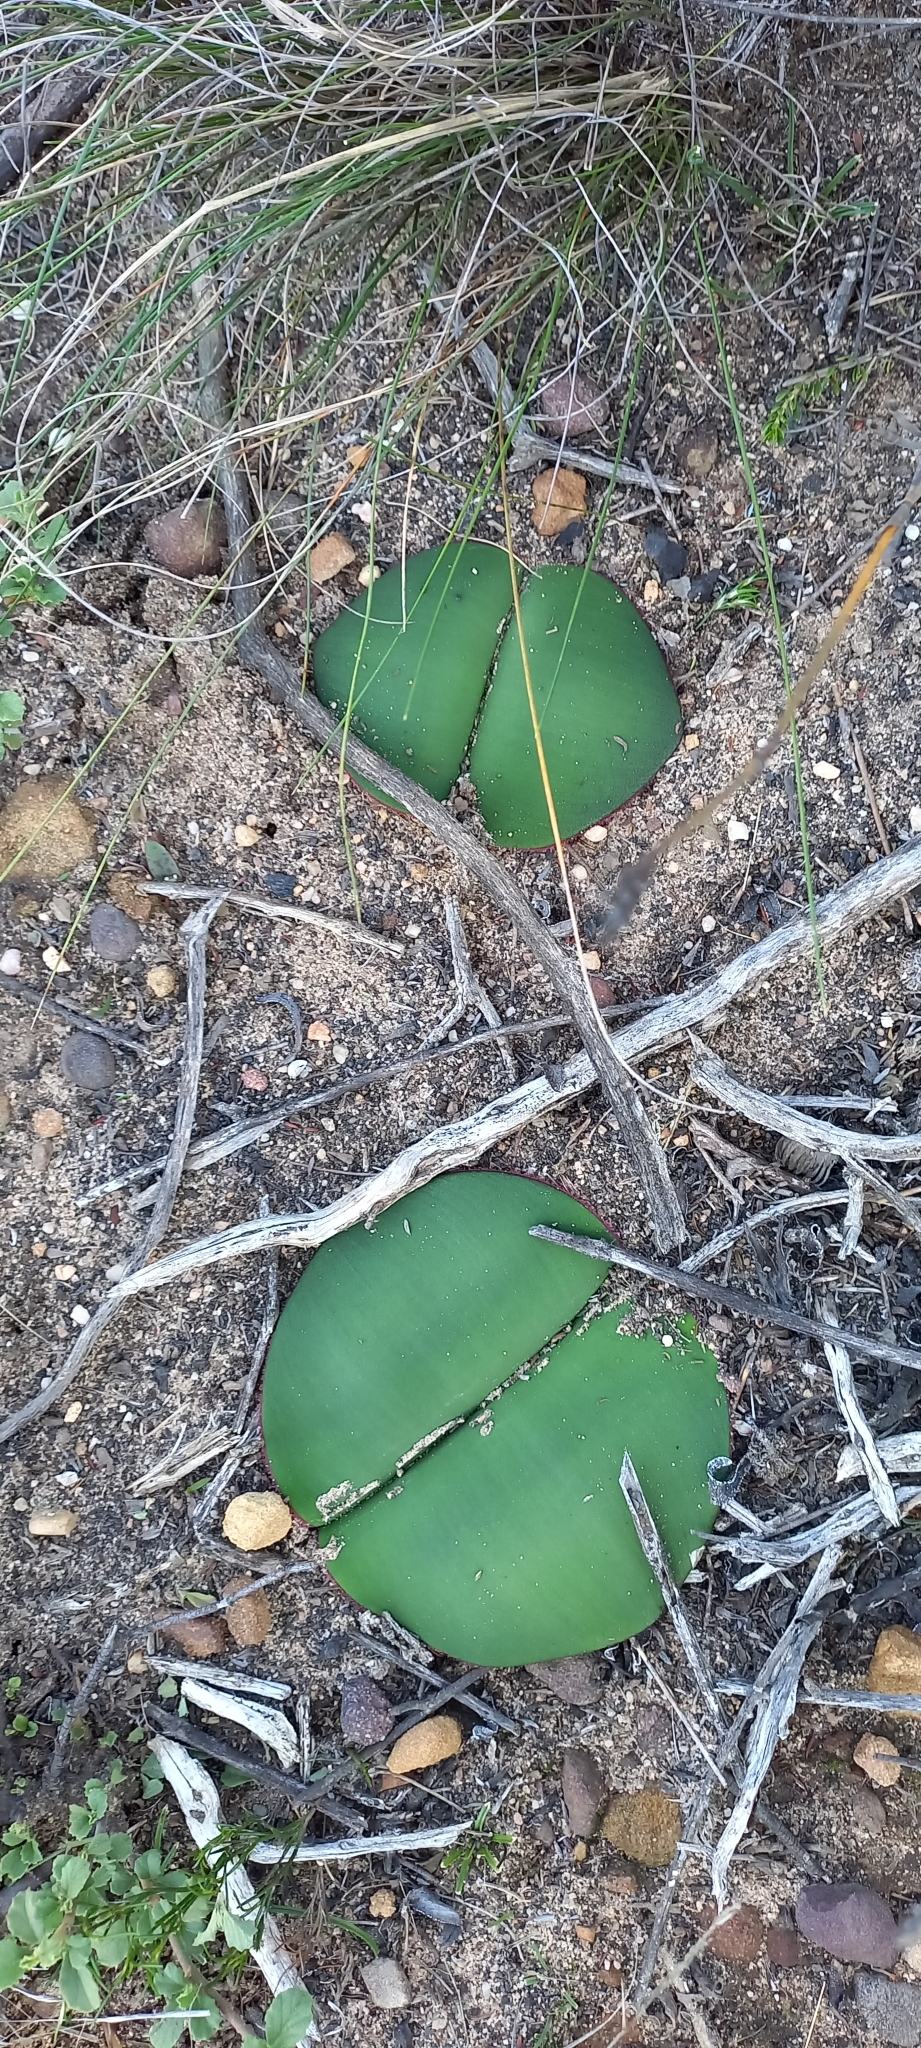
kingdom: Plantae
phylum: Tracheophyta
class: Liliopsida
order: Asparagales
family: Amaryllidaceae
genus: Haemanthus
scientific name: Haemanthus sanguineus
